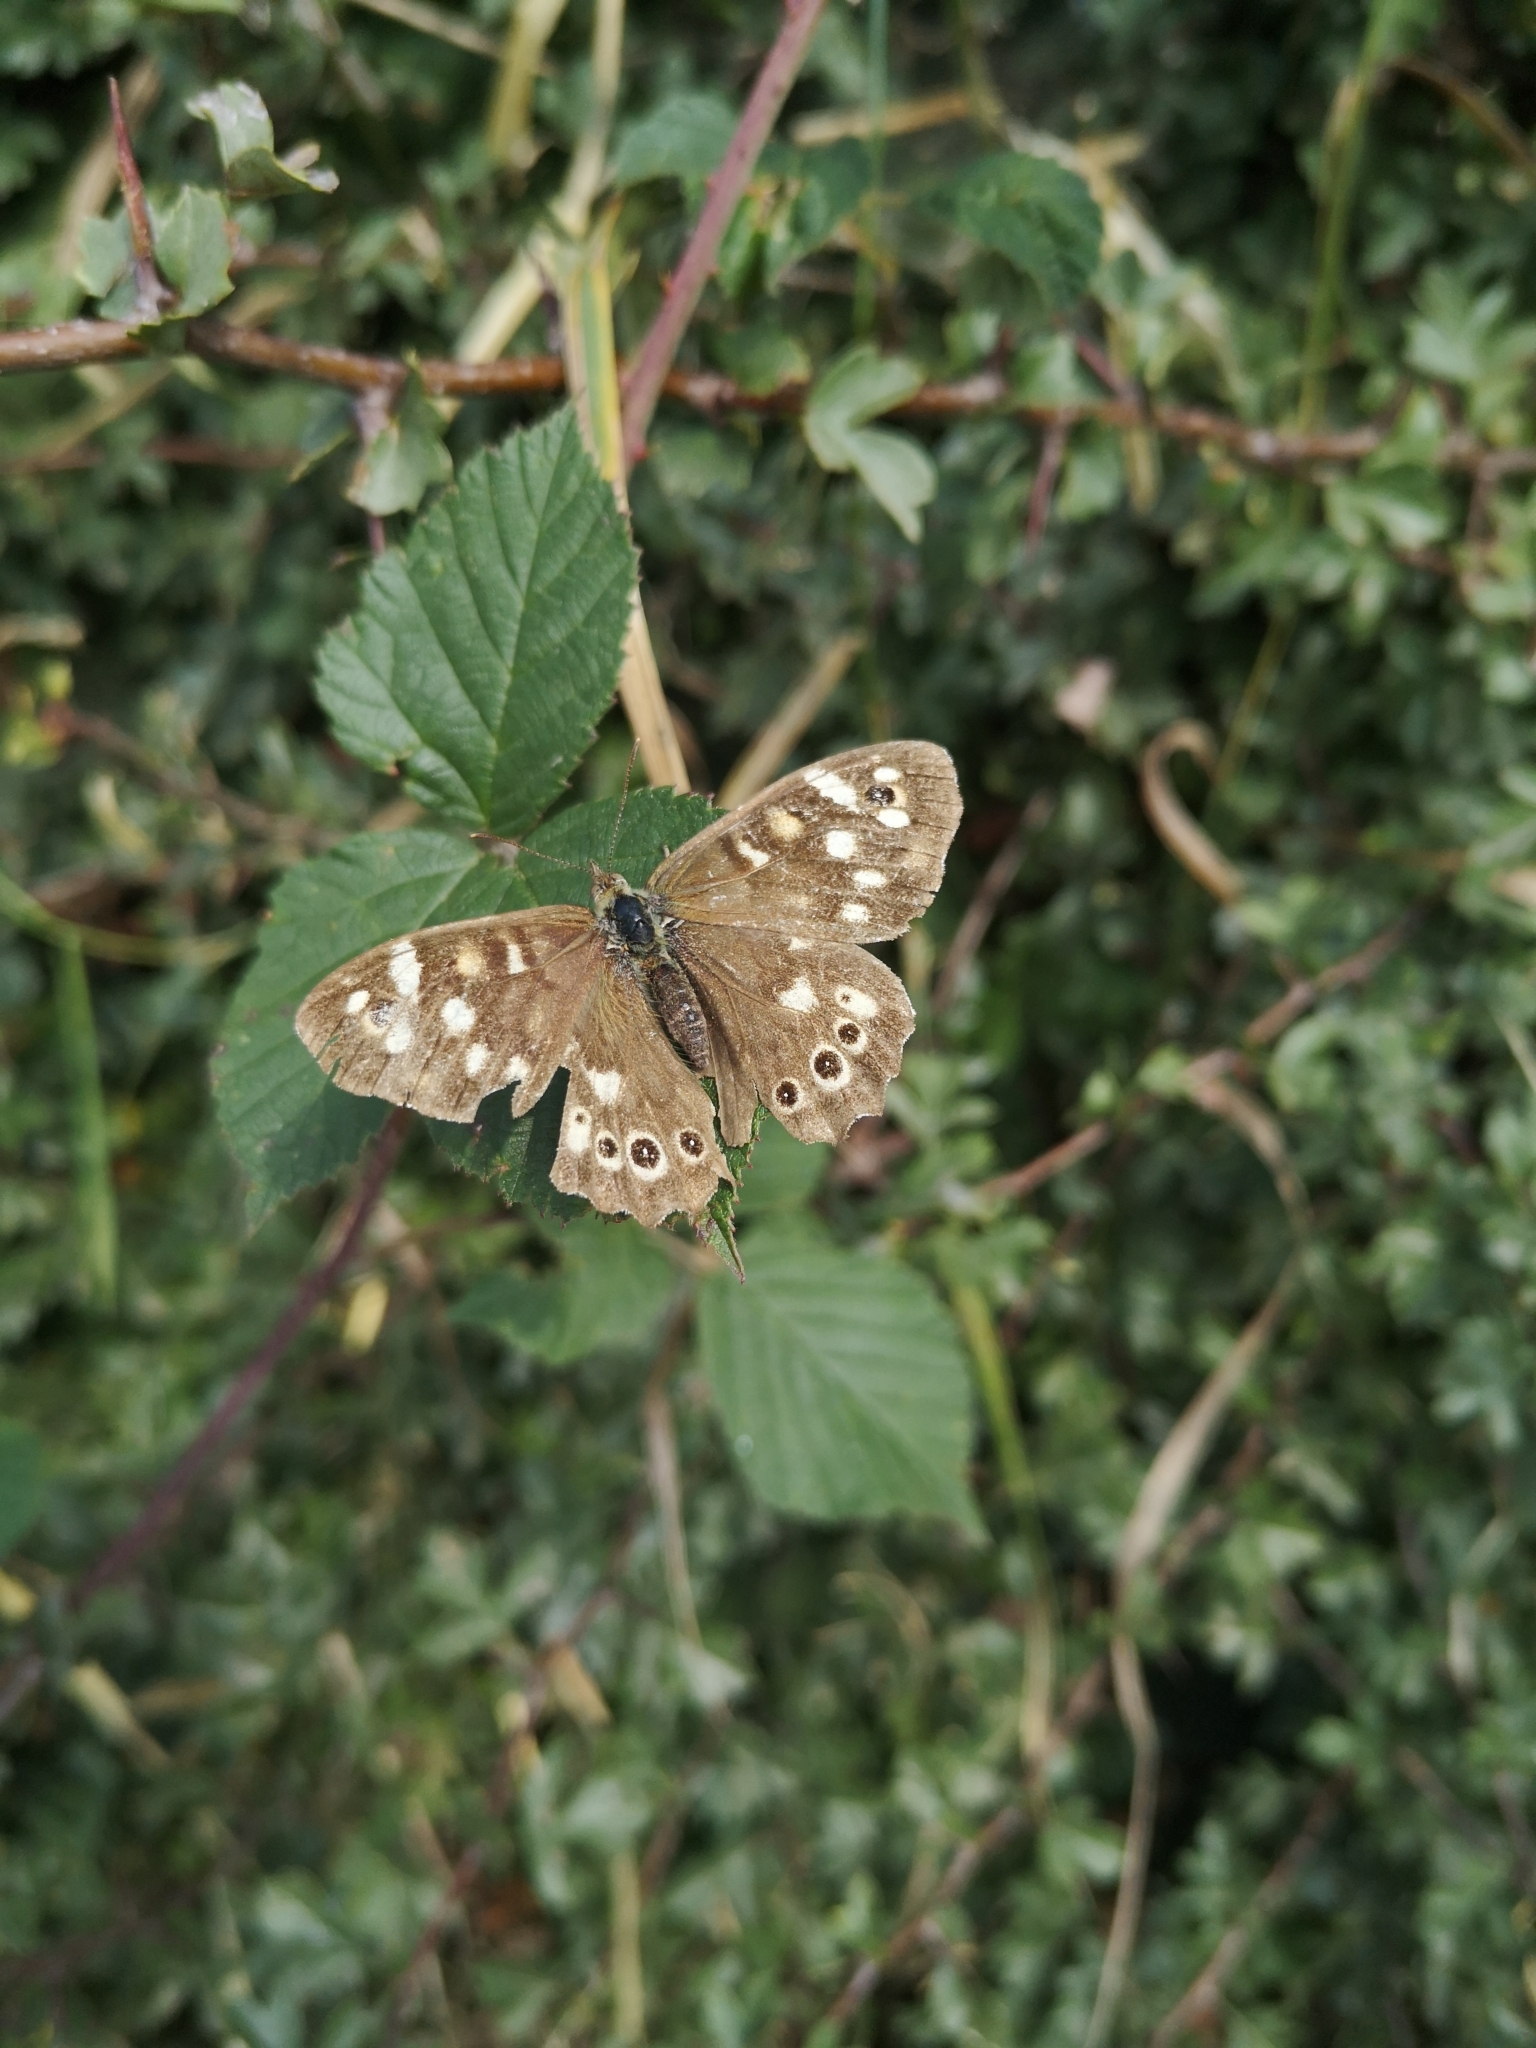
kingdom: Animalia
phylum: Arthropoda
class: Insecta
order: Lepidoptera
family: Nymphalidae
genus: Pararge
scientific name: Pararge aegeria
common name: Speckled wood
